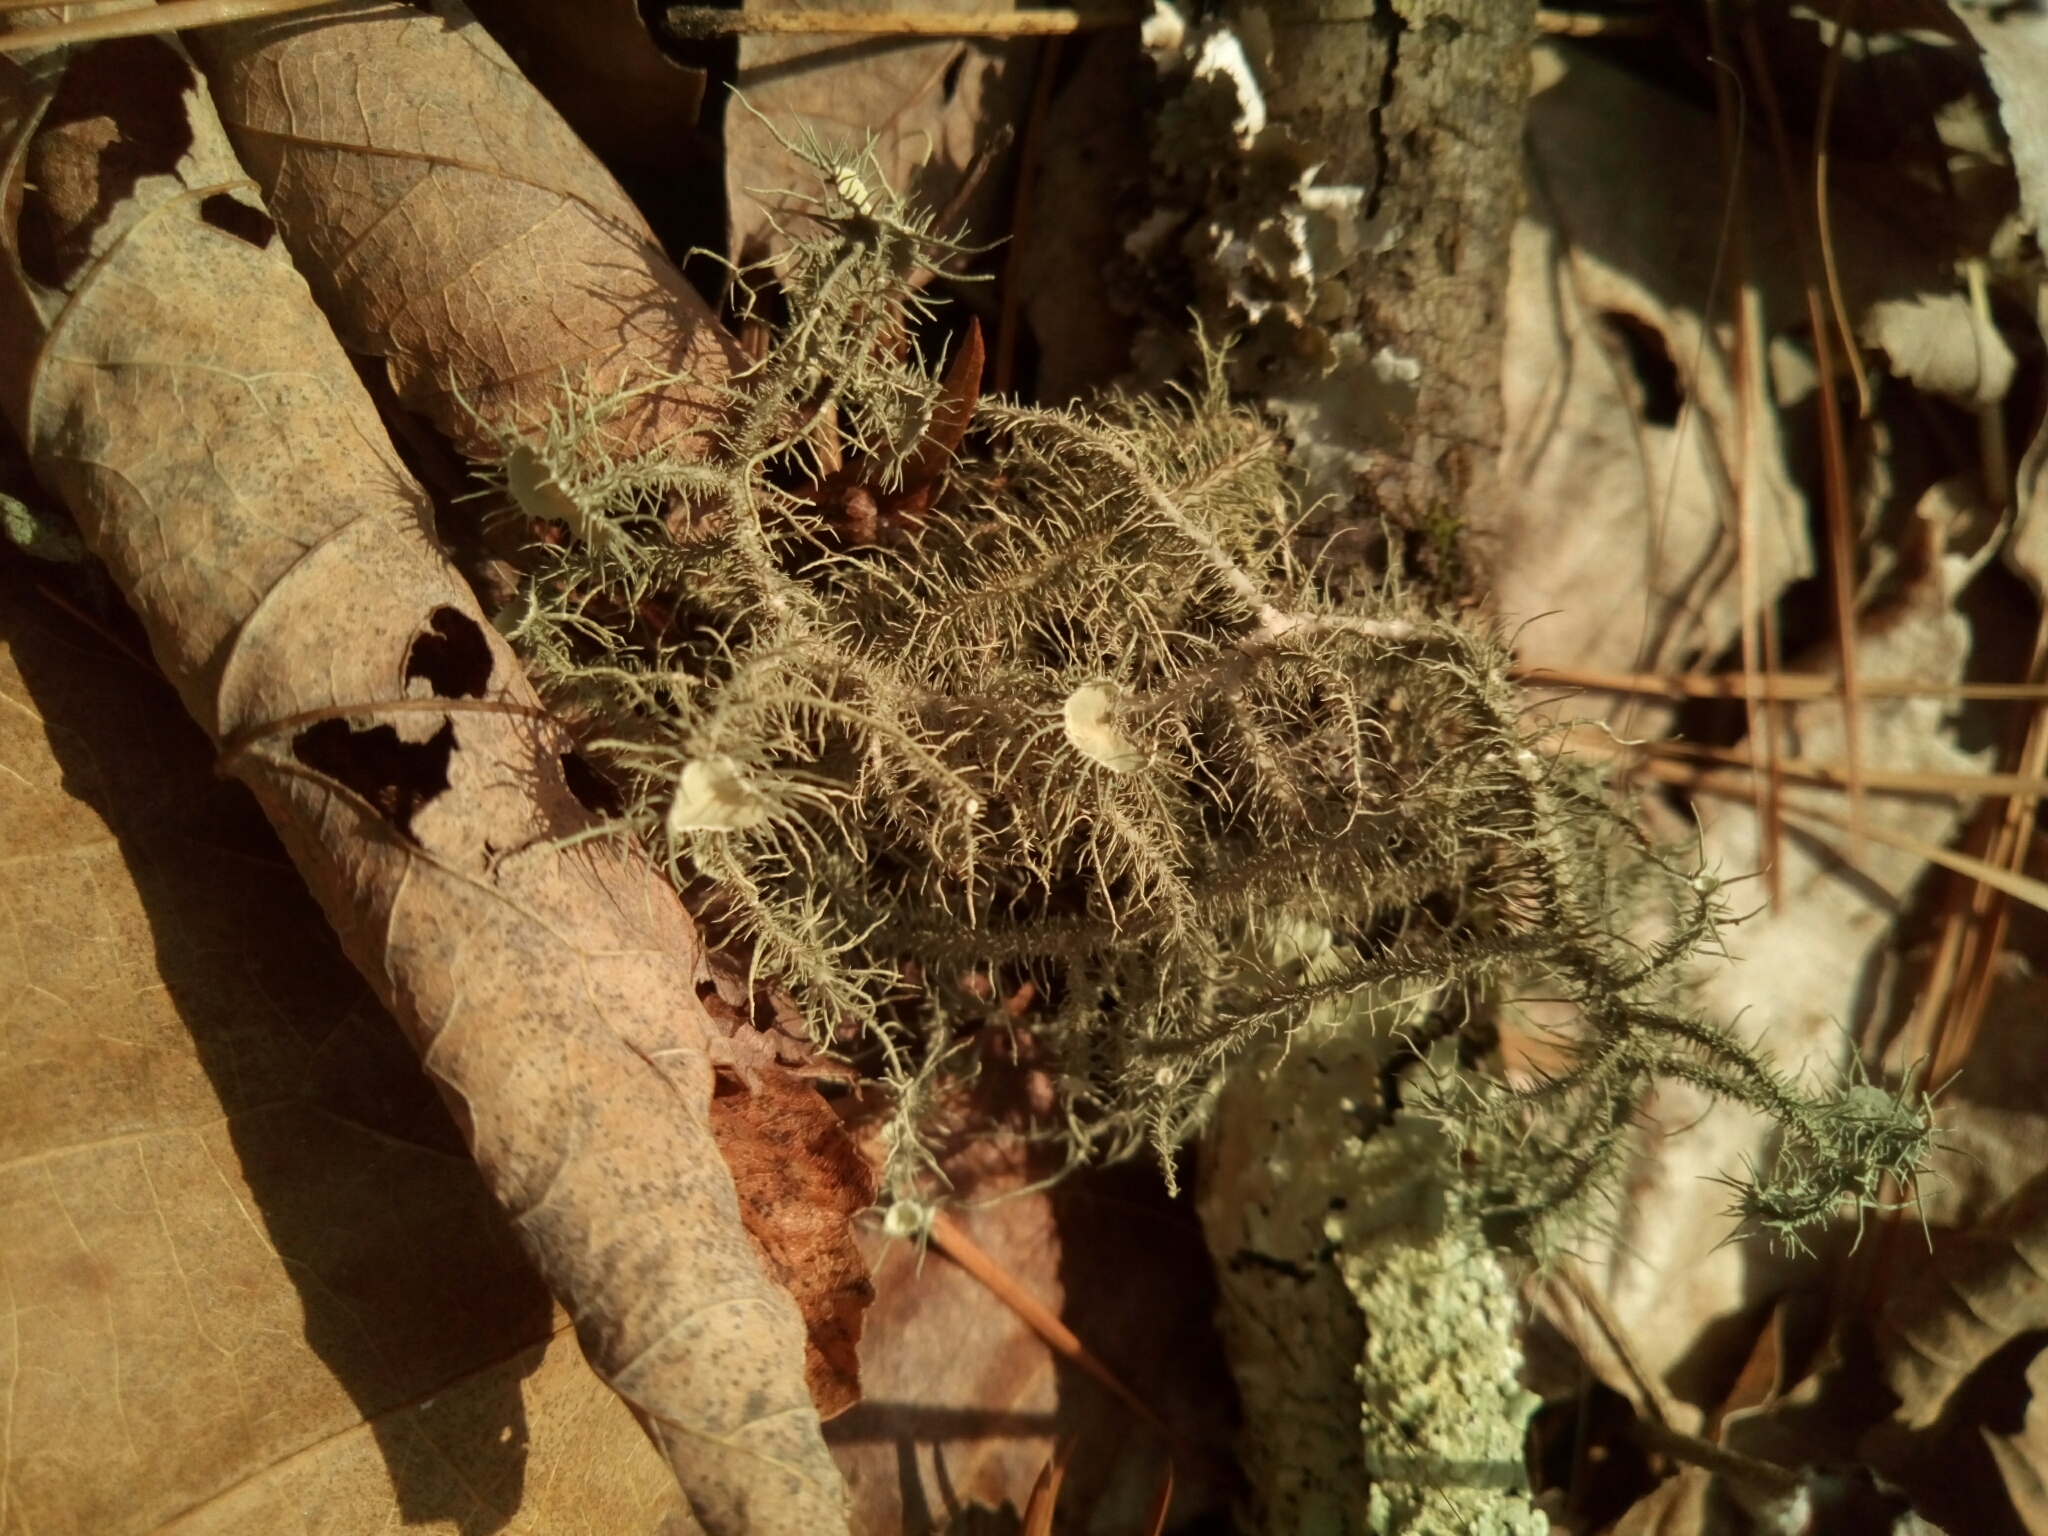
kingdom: Fungi
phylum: Ascomycota
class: Lecanoromycetes
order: Lecanorales
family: Parmeliaceae
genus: Usnea
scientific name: Usnea strigosa
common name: Bushy beard lichen
